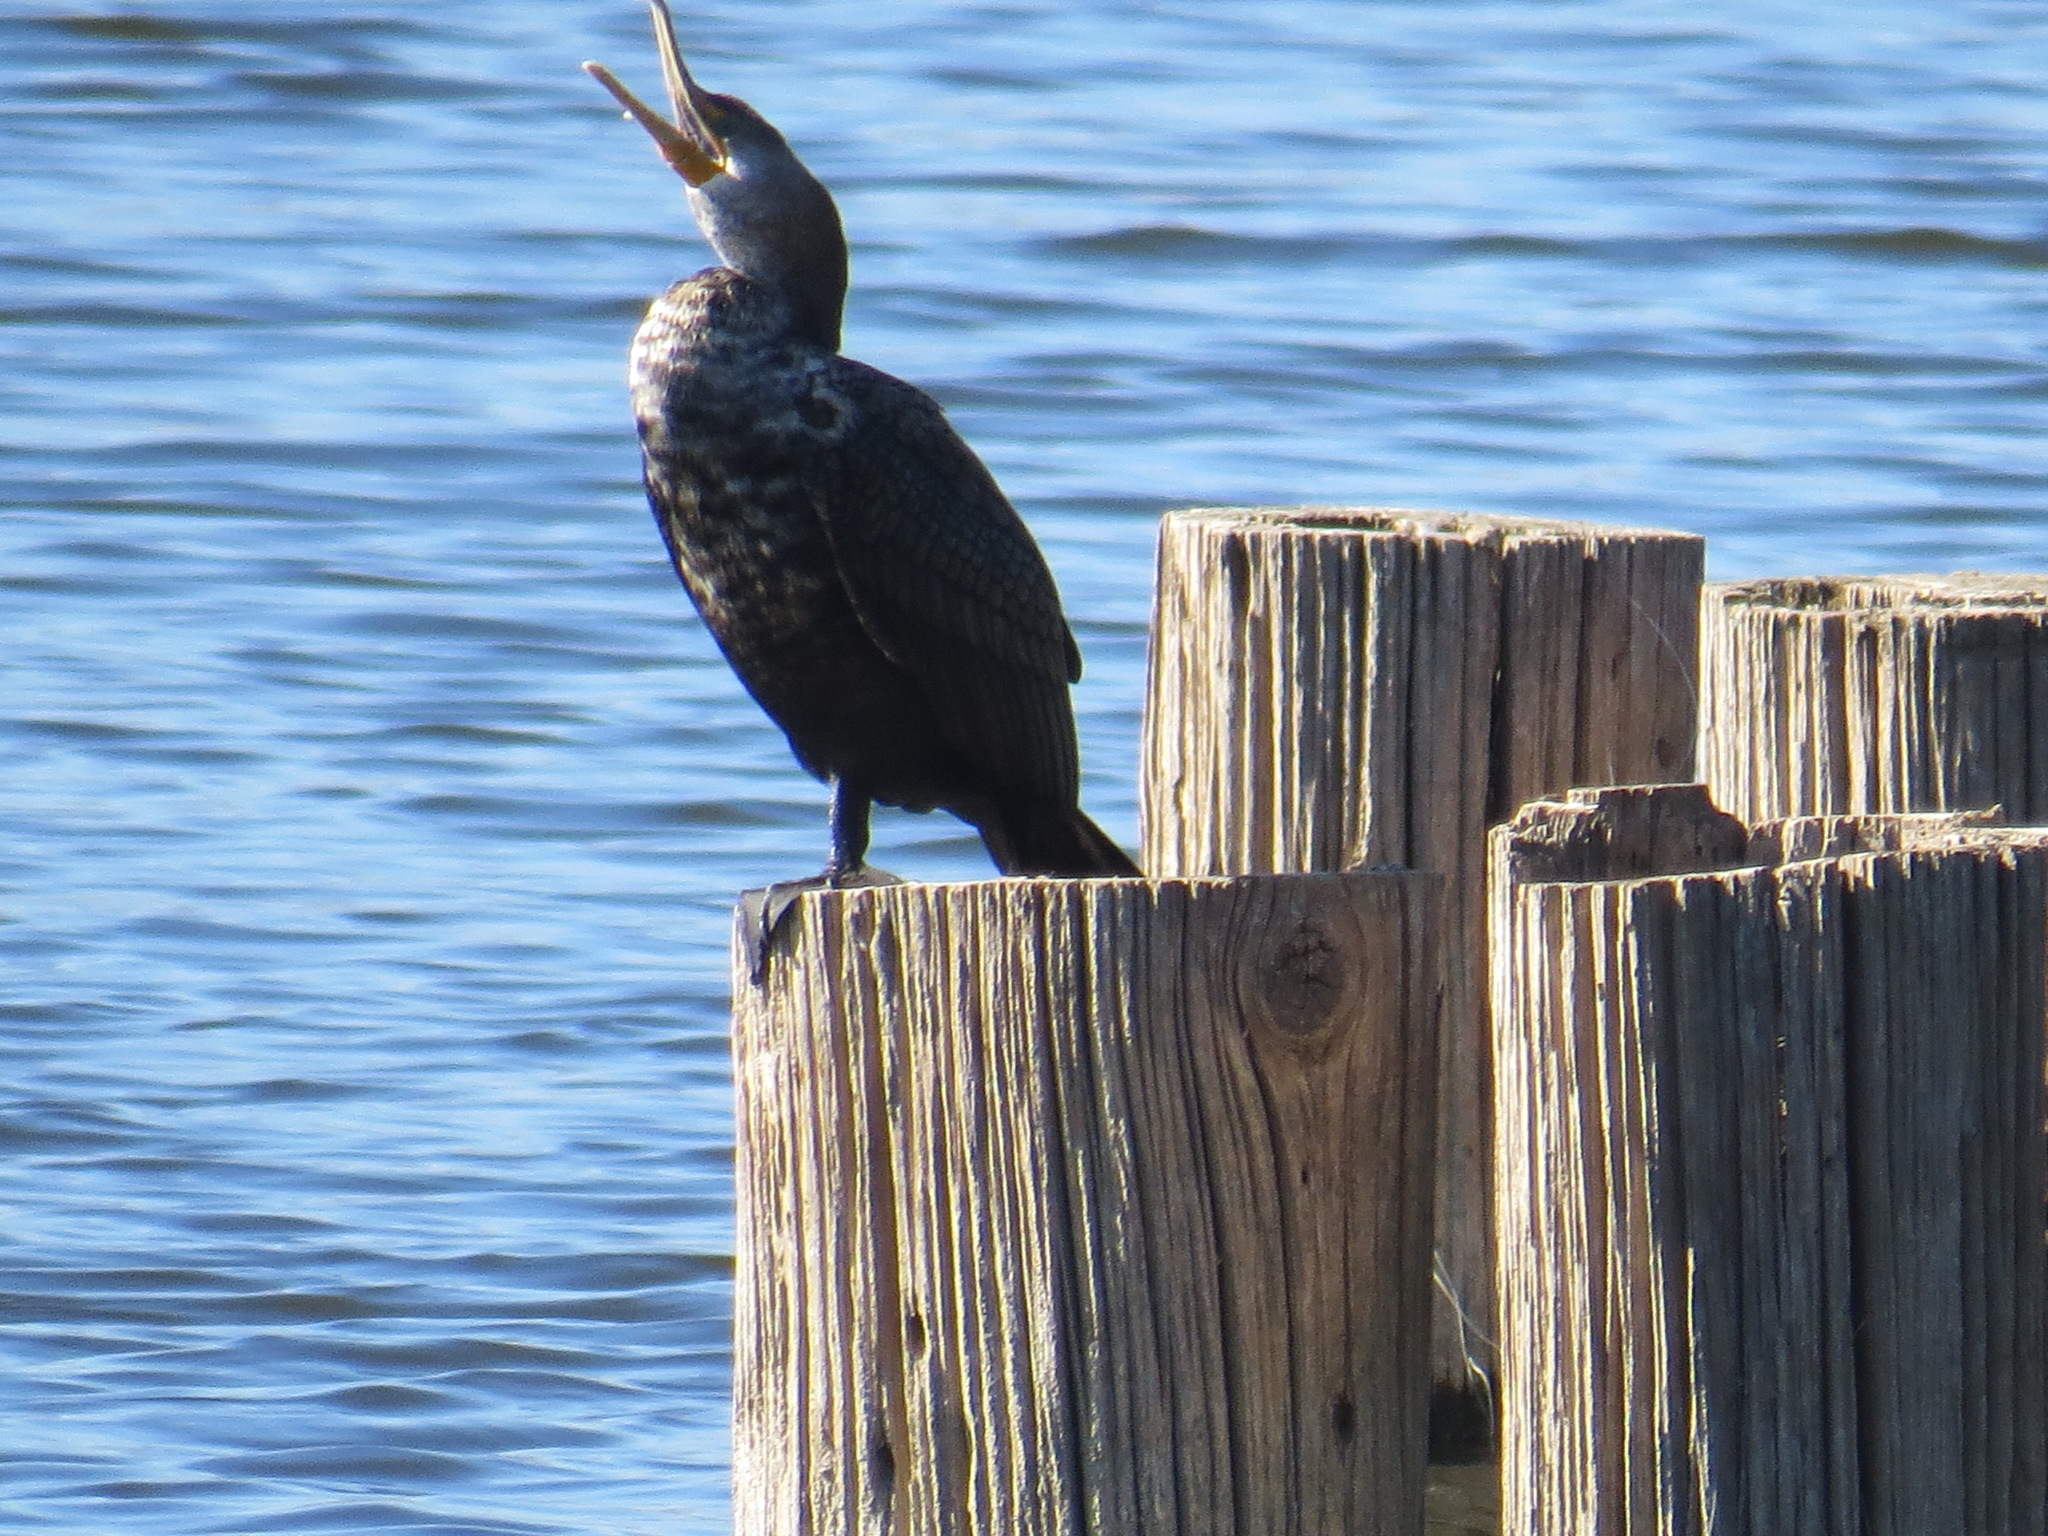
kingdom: Animalia
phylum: Chordata
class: Aves
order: Suliformes
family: Phalacrocoracidae
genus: Phalacrocorax
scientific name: Phalacrocorax auritus
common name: Double-crested cormorant
